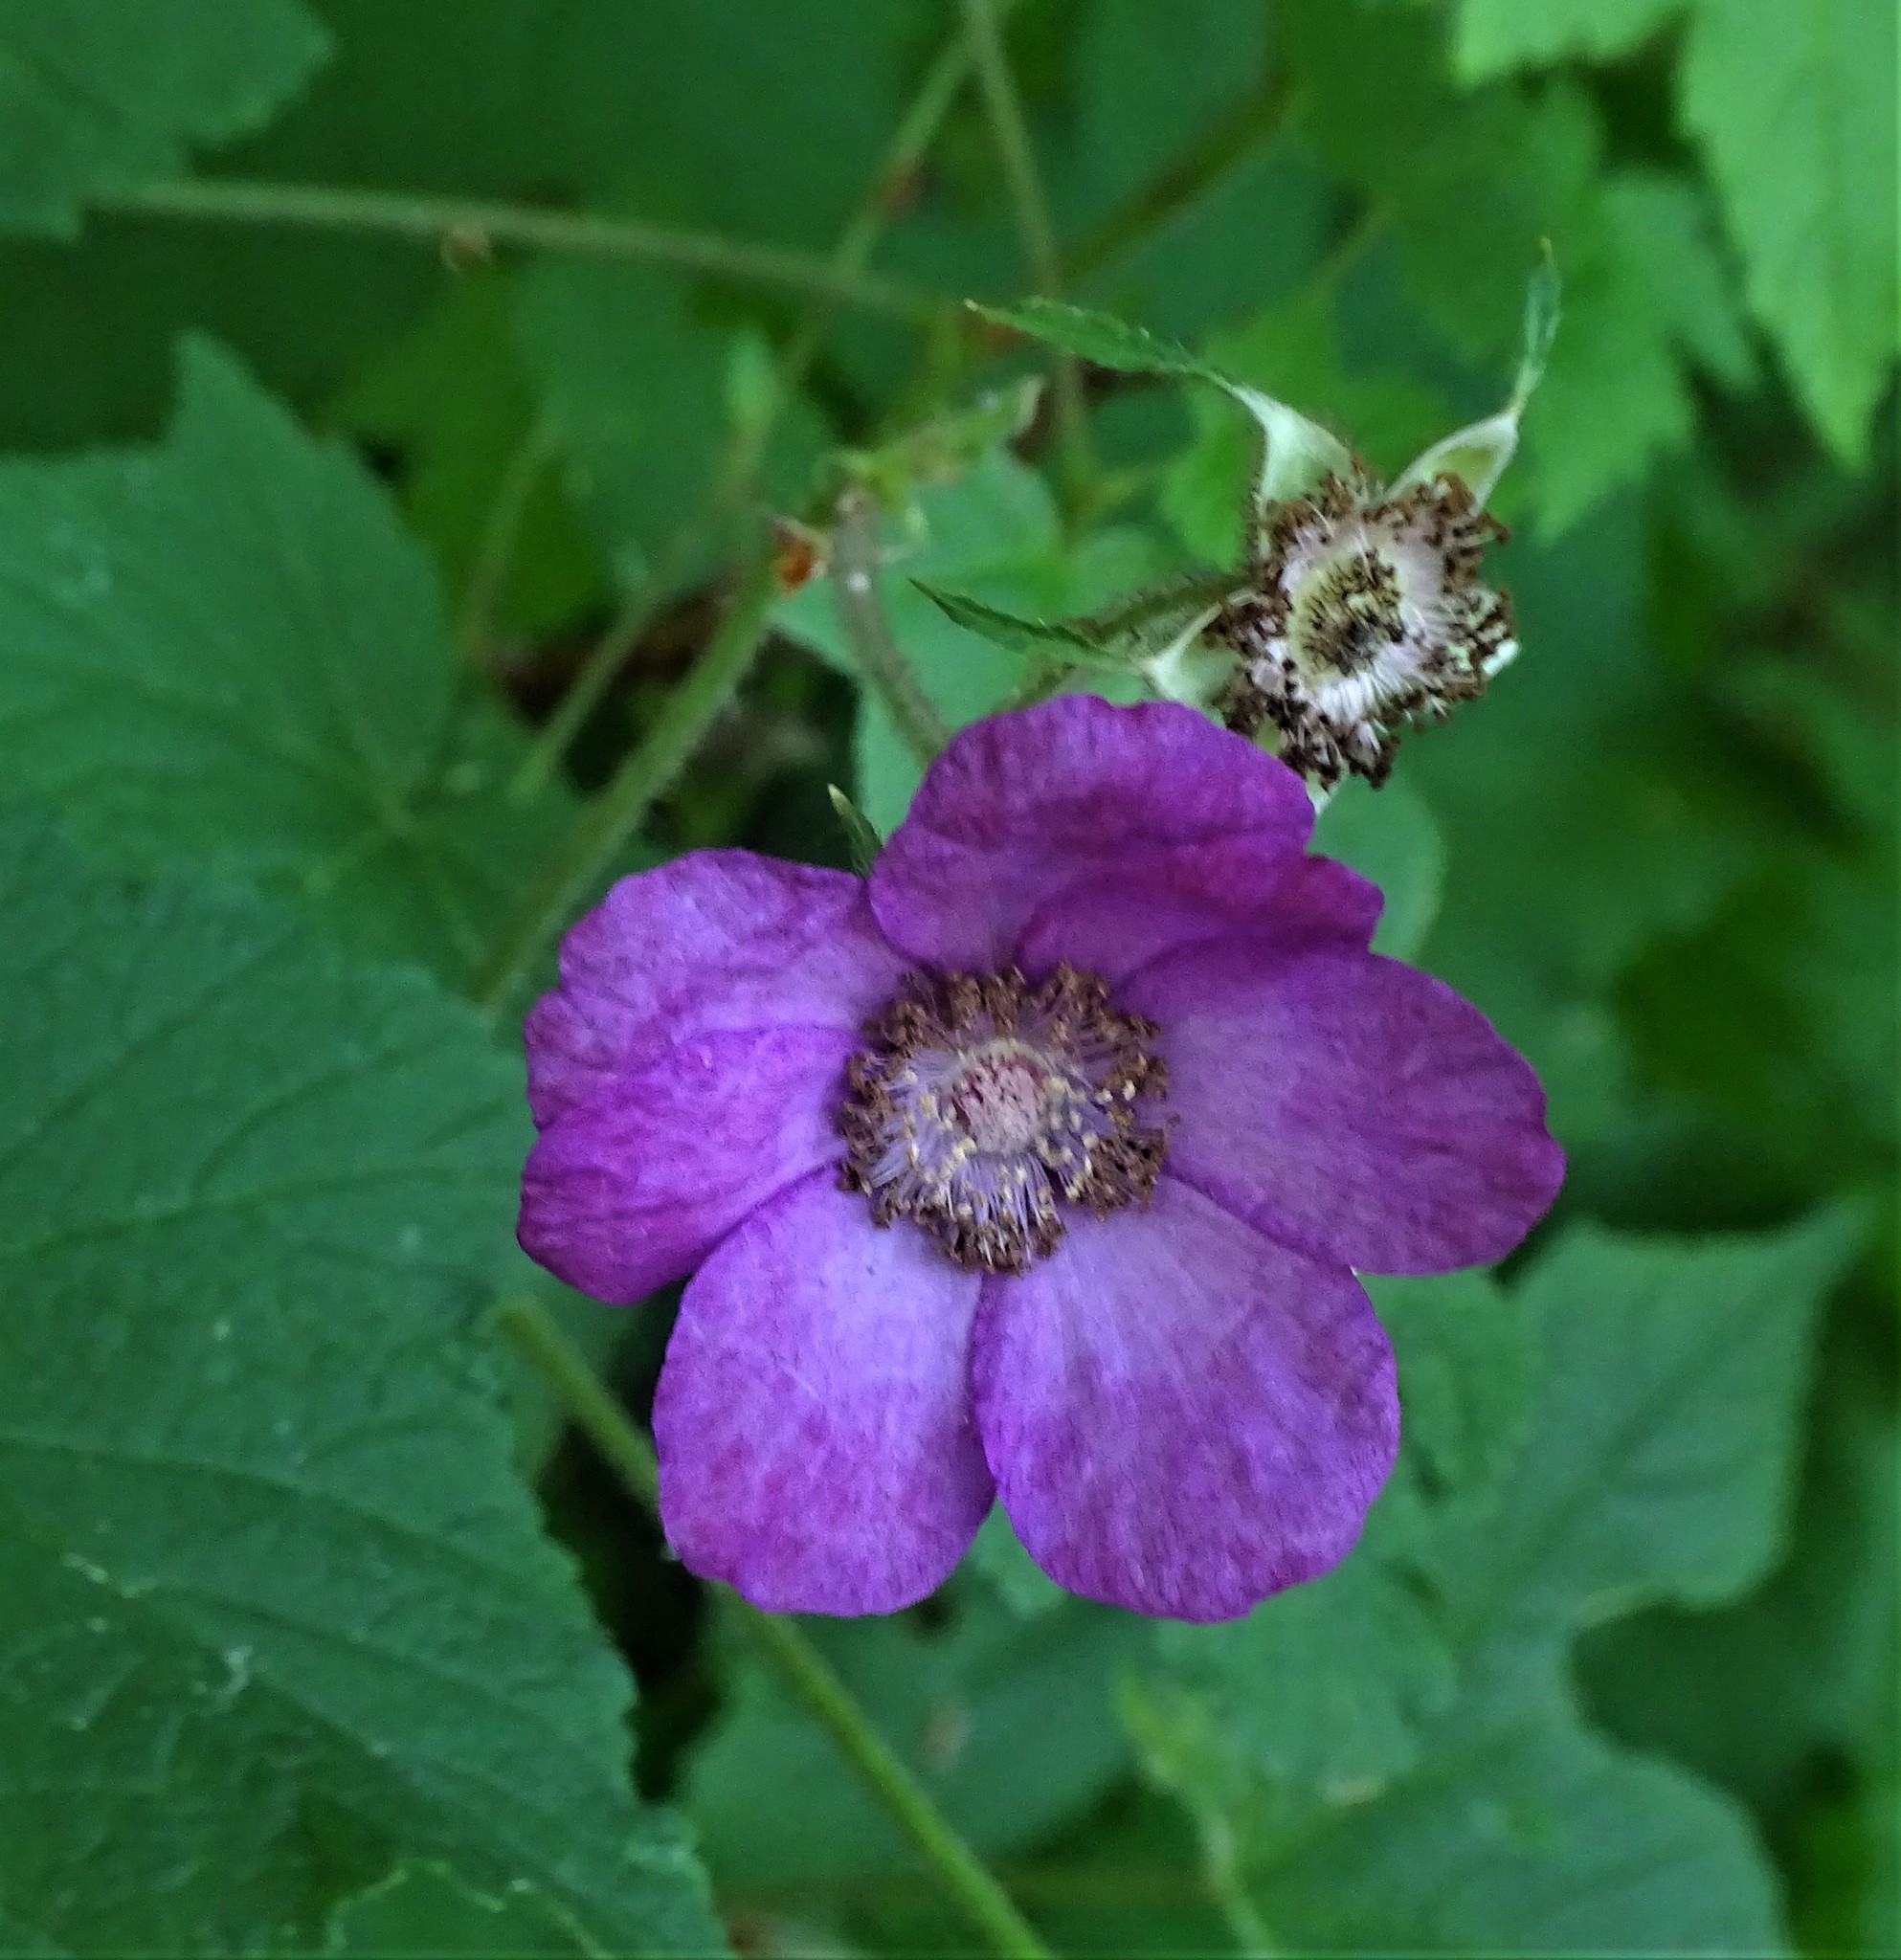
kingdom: Plantae
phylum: Tracheophyta
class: Magnoliopsida
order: Rosales
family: Rosaceae
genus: Rubus
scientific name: Rubus odoratus
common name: Purple-flowered raspberry
